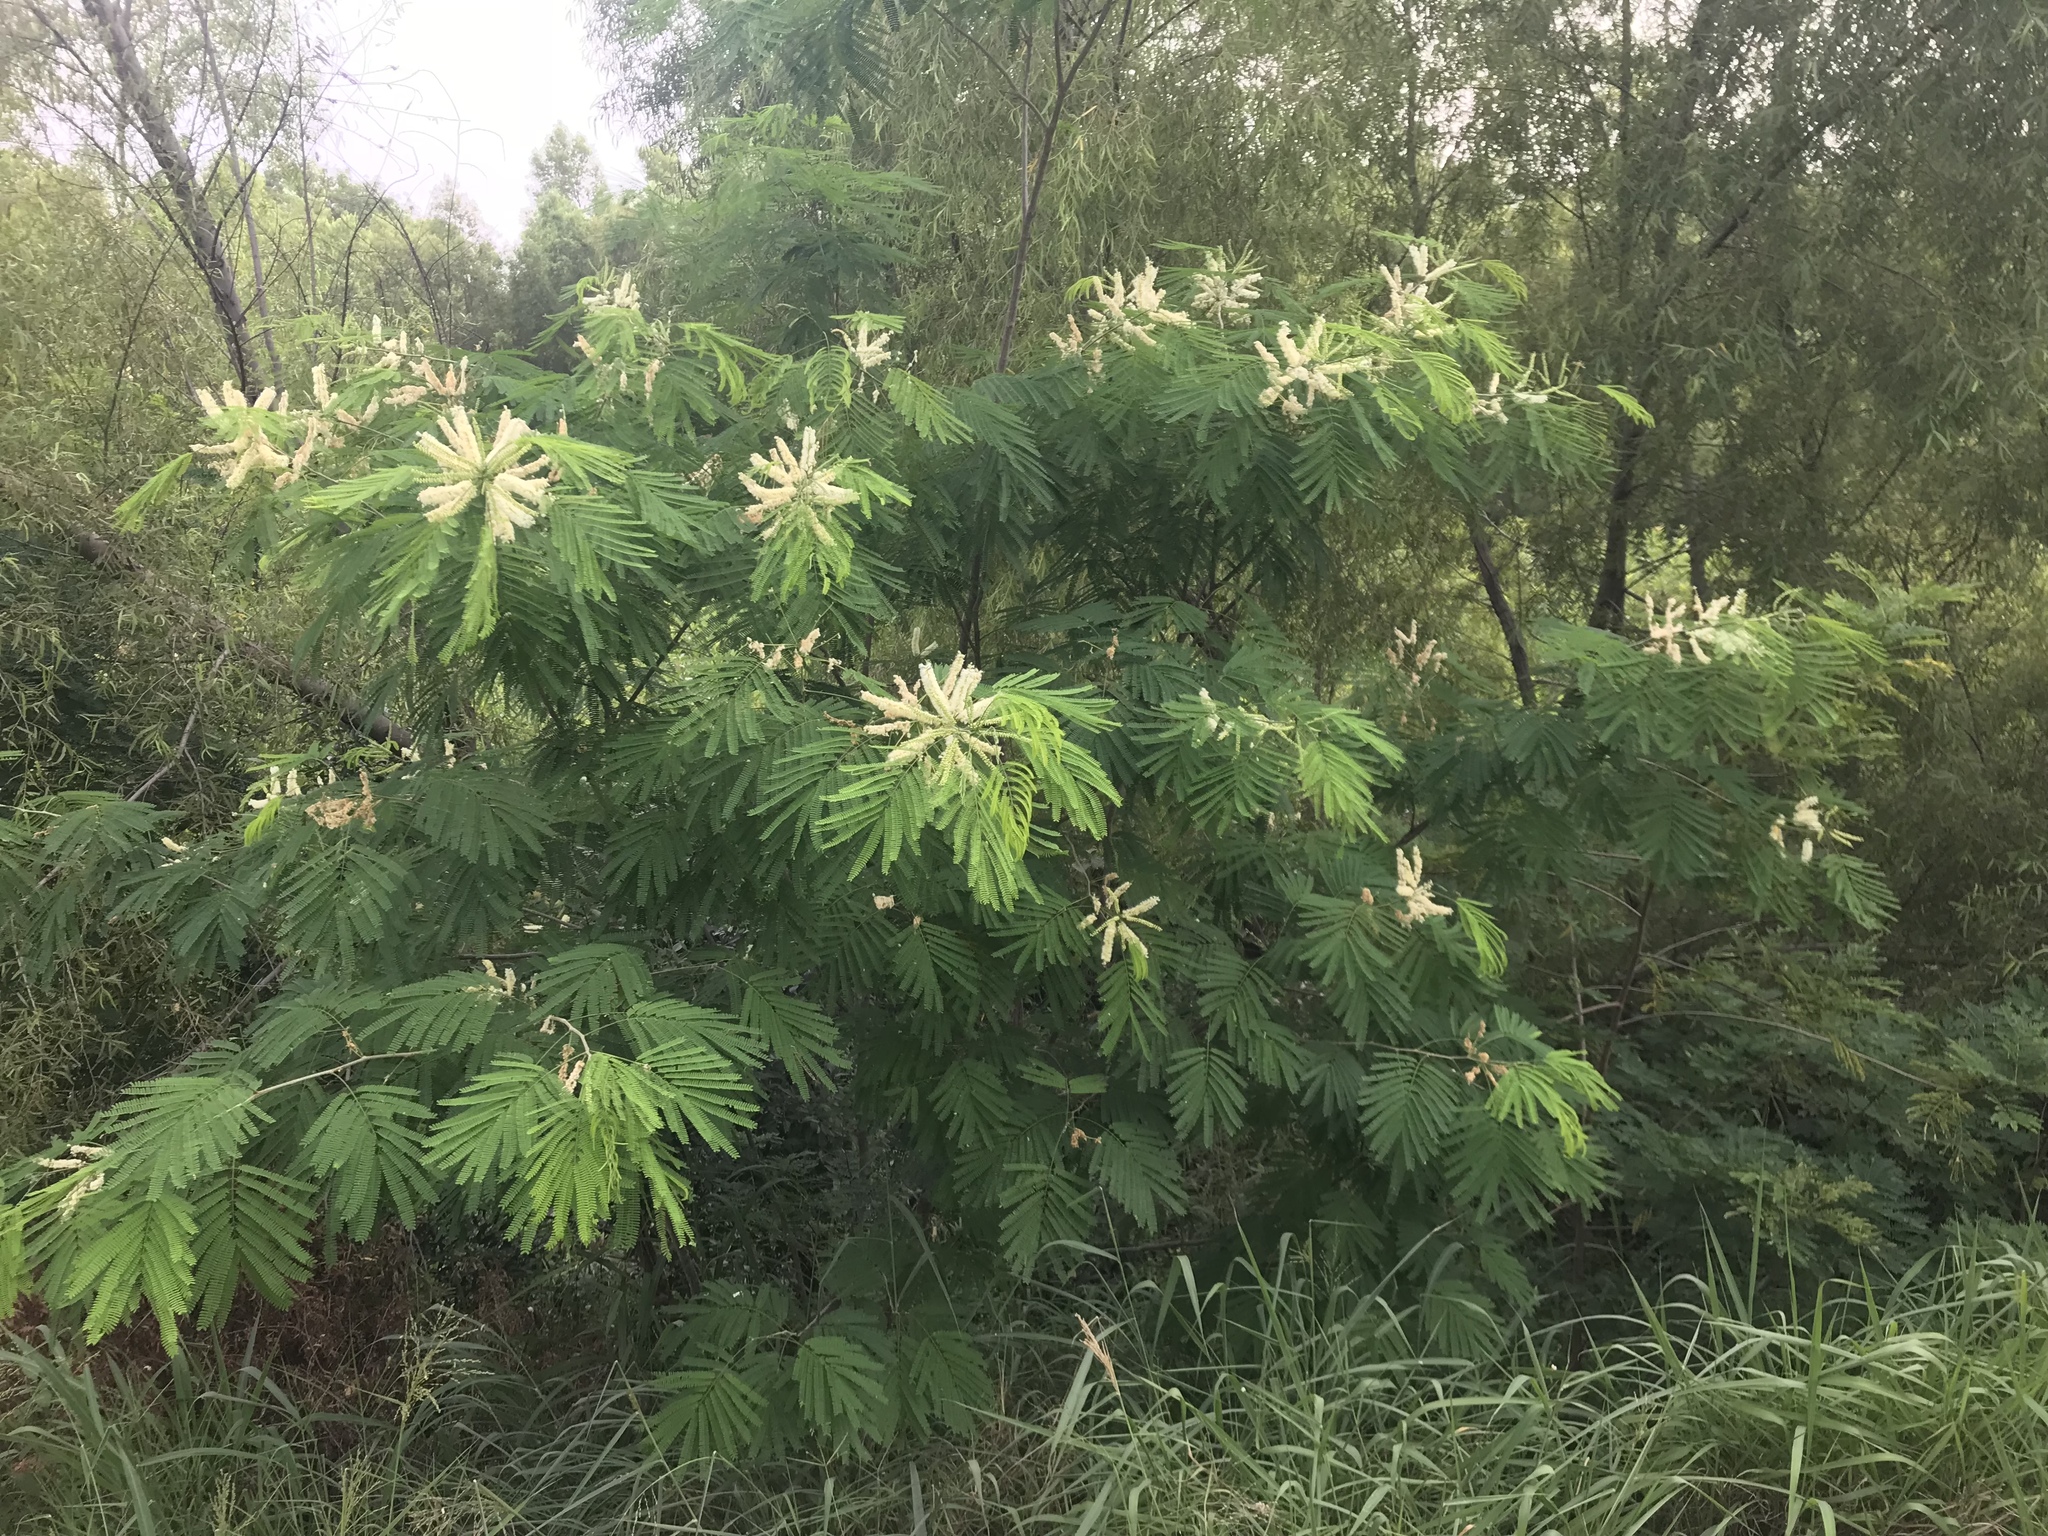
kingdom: Plantae
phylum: Tracheophyta
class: Magnoliopsida
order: Fabales
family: Fabaceae
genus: Mariosousa
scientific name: Mariosousa coulteri
